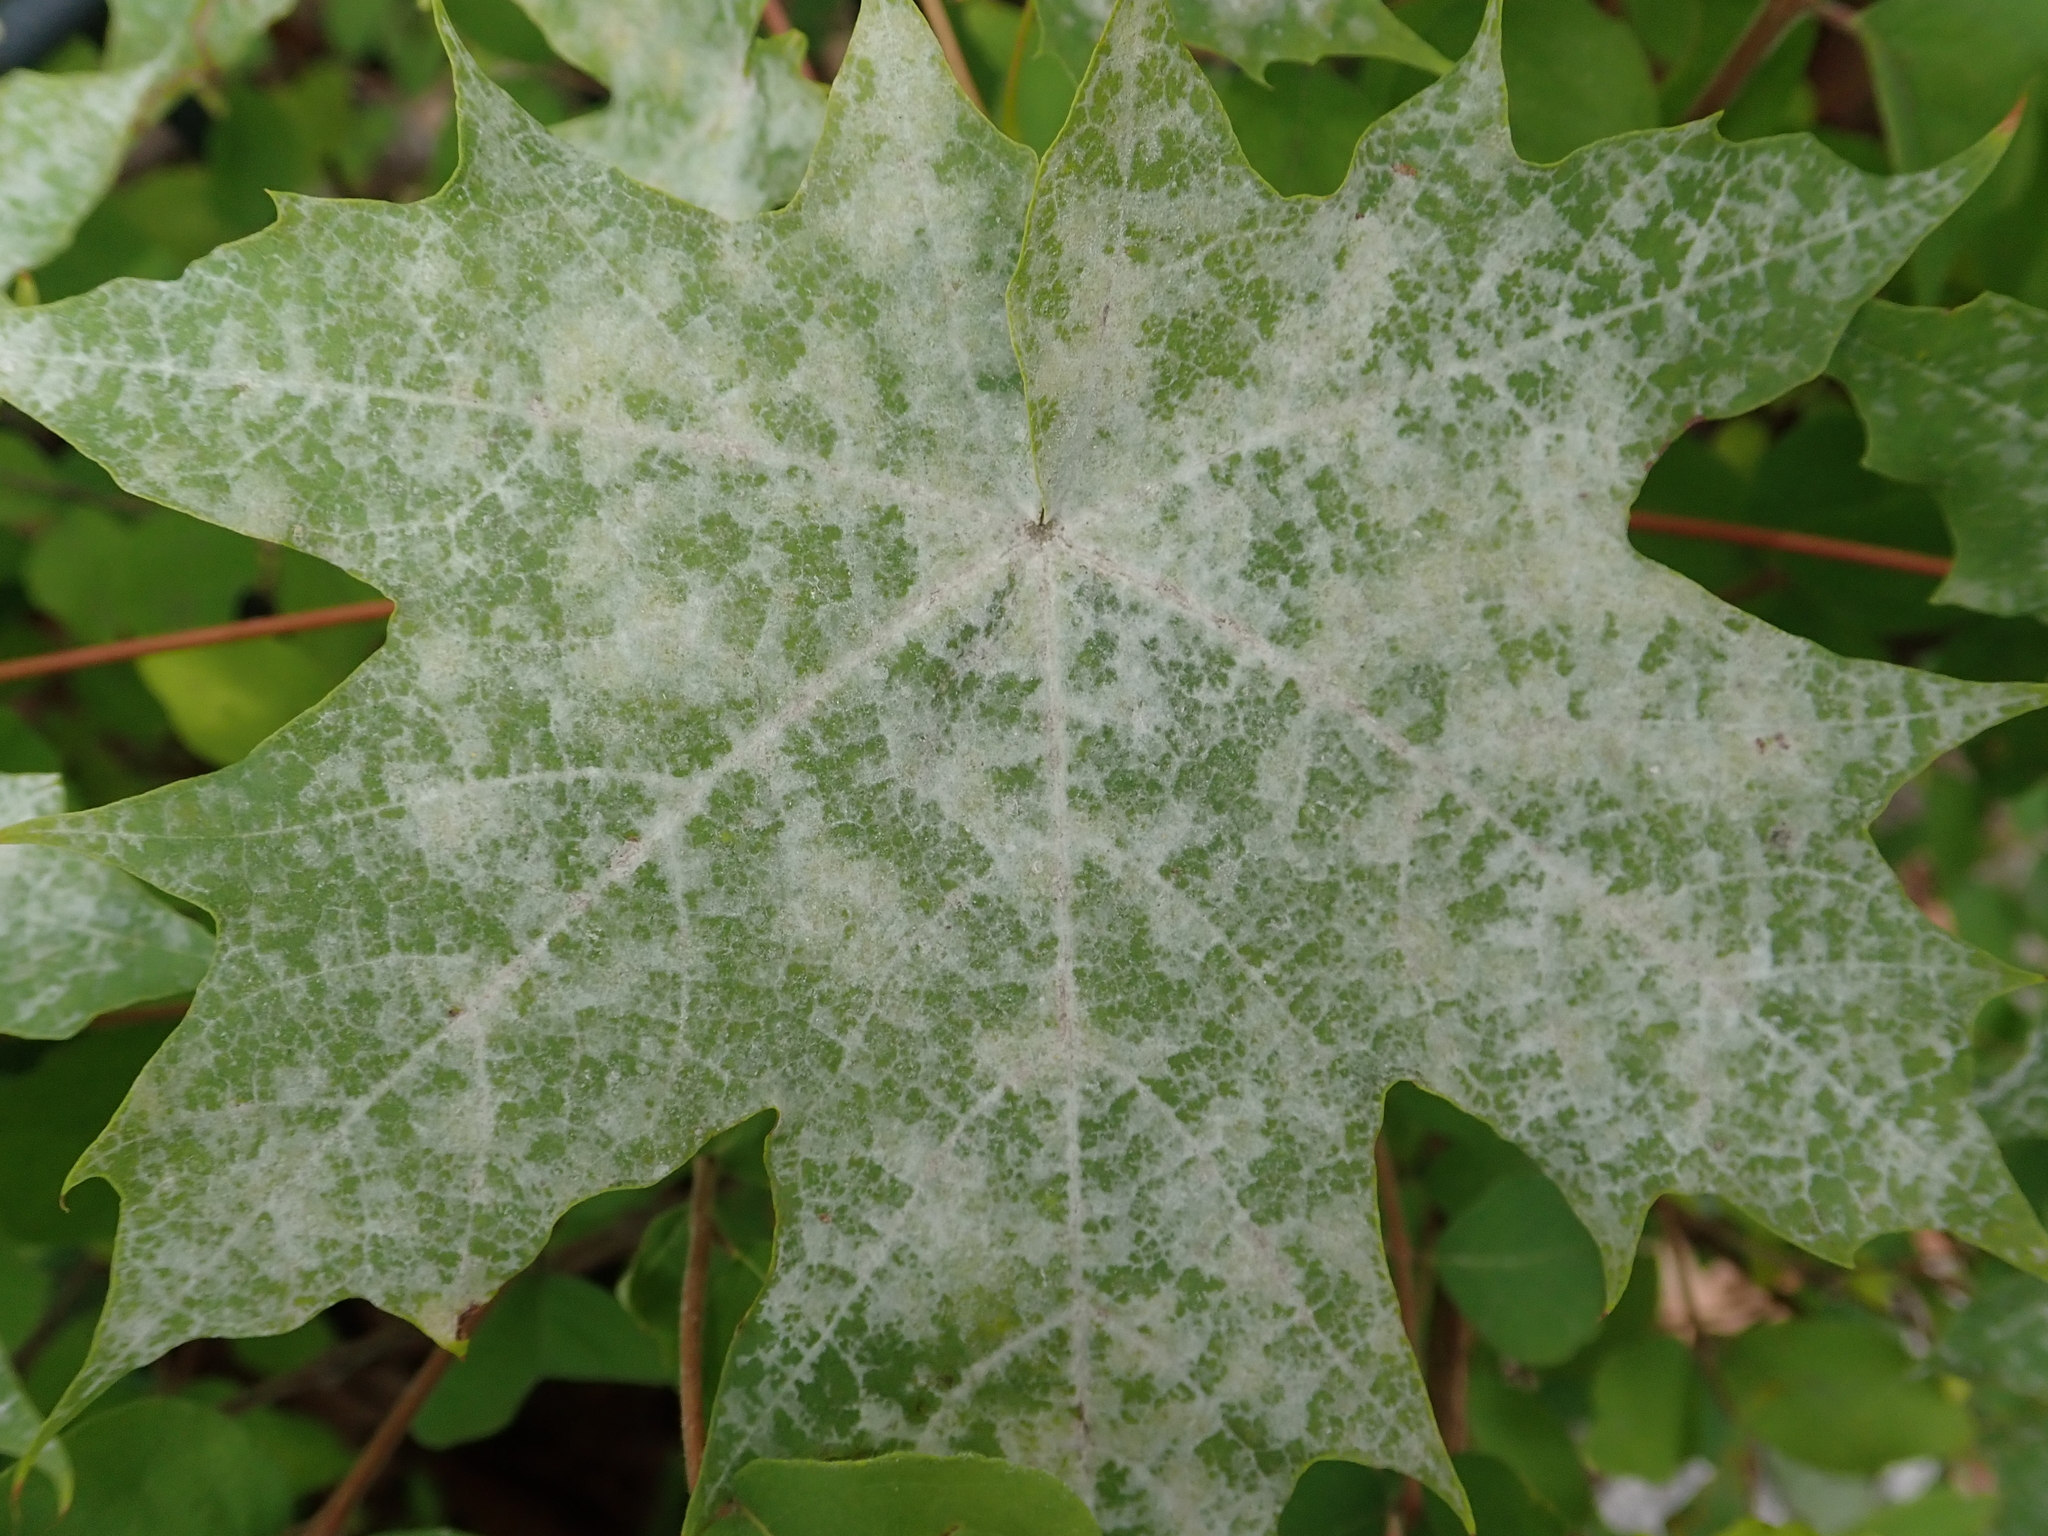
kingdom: Fungi
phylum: Ascomycota
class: Leotiomycetes
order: Helotiales
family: Erysiphaceae
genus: Sawadaea
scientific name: Sawadaea tulasnei
